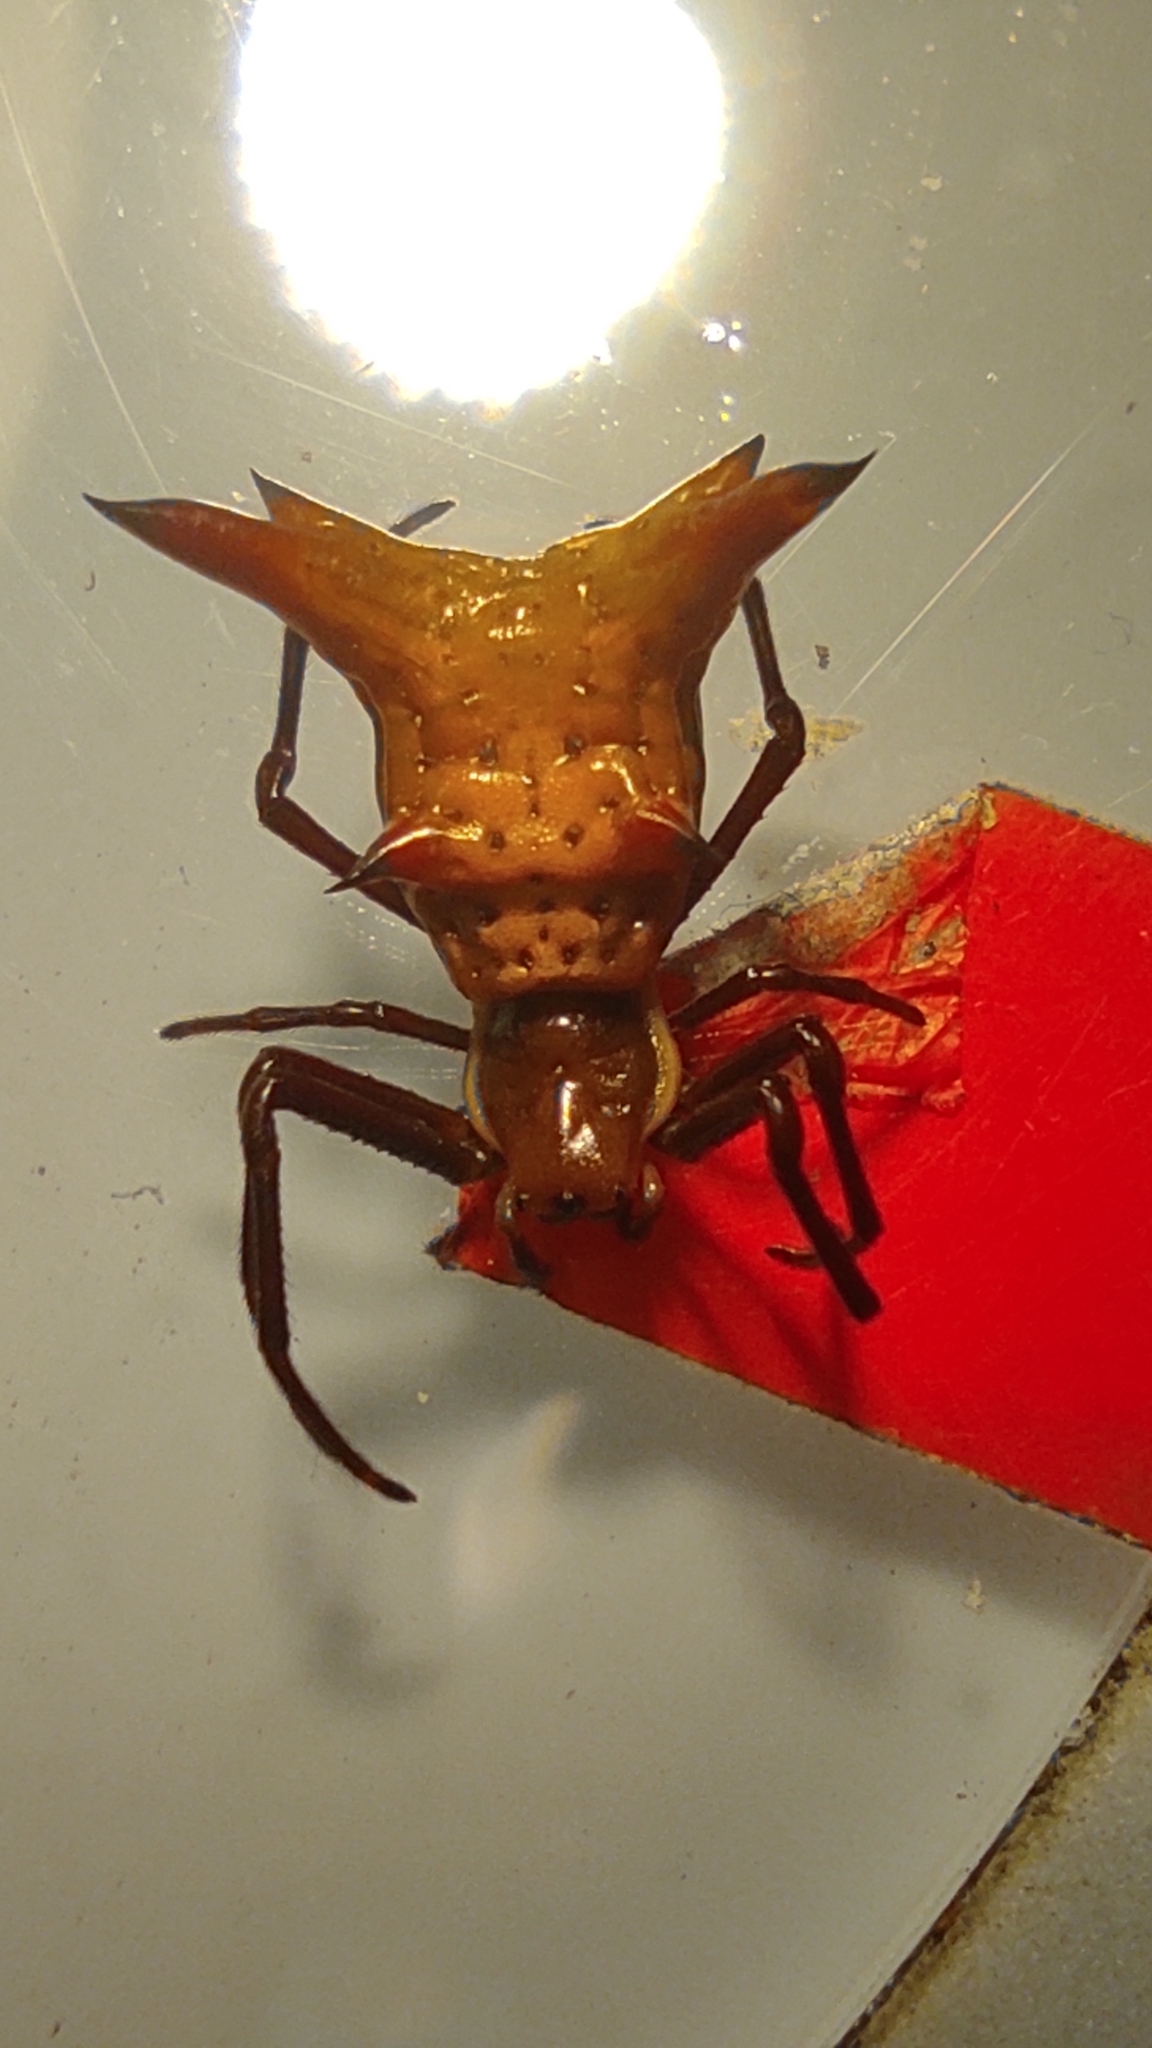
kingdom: Animalia
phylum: Arthropoda
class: Arachnida
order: Araneae
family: Araneidae
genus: Micrathena
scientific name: Micrathena fissispina
